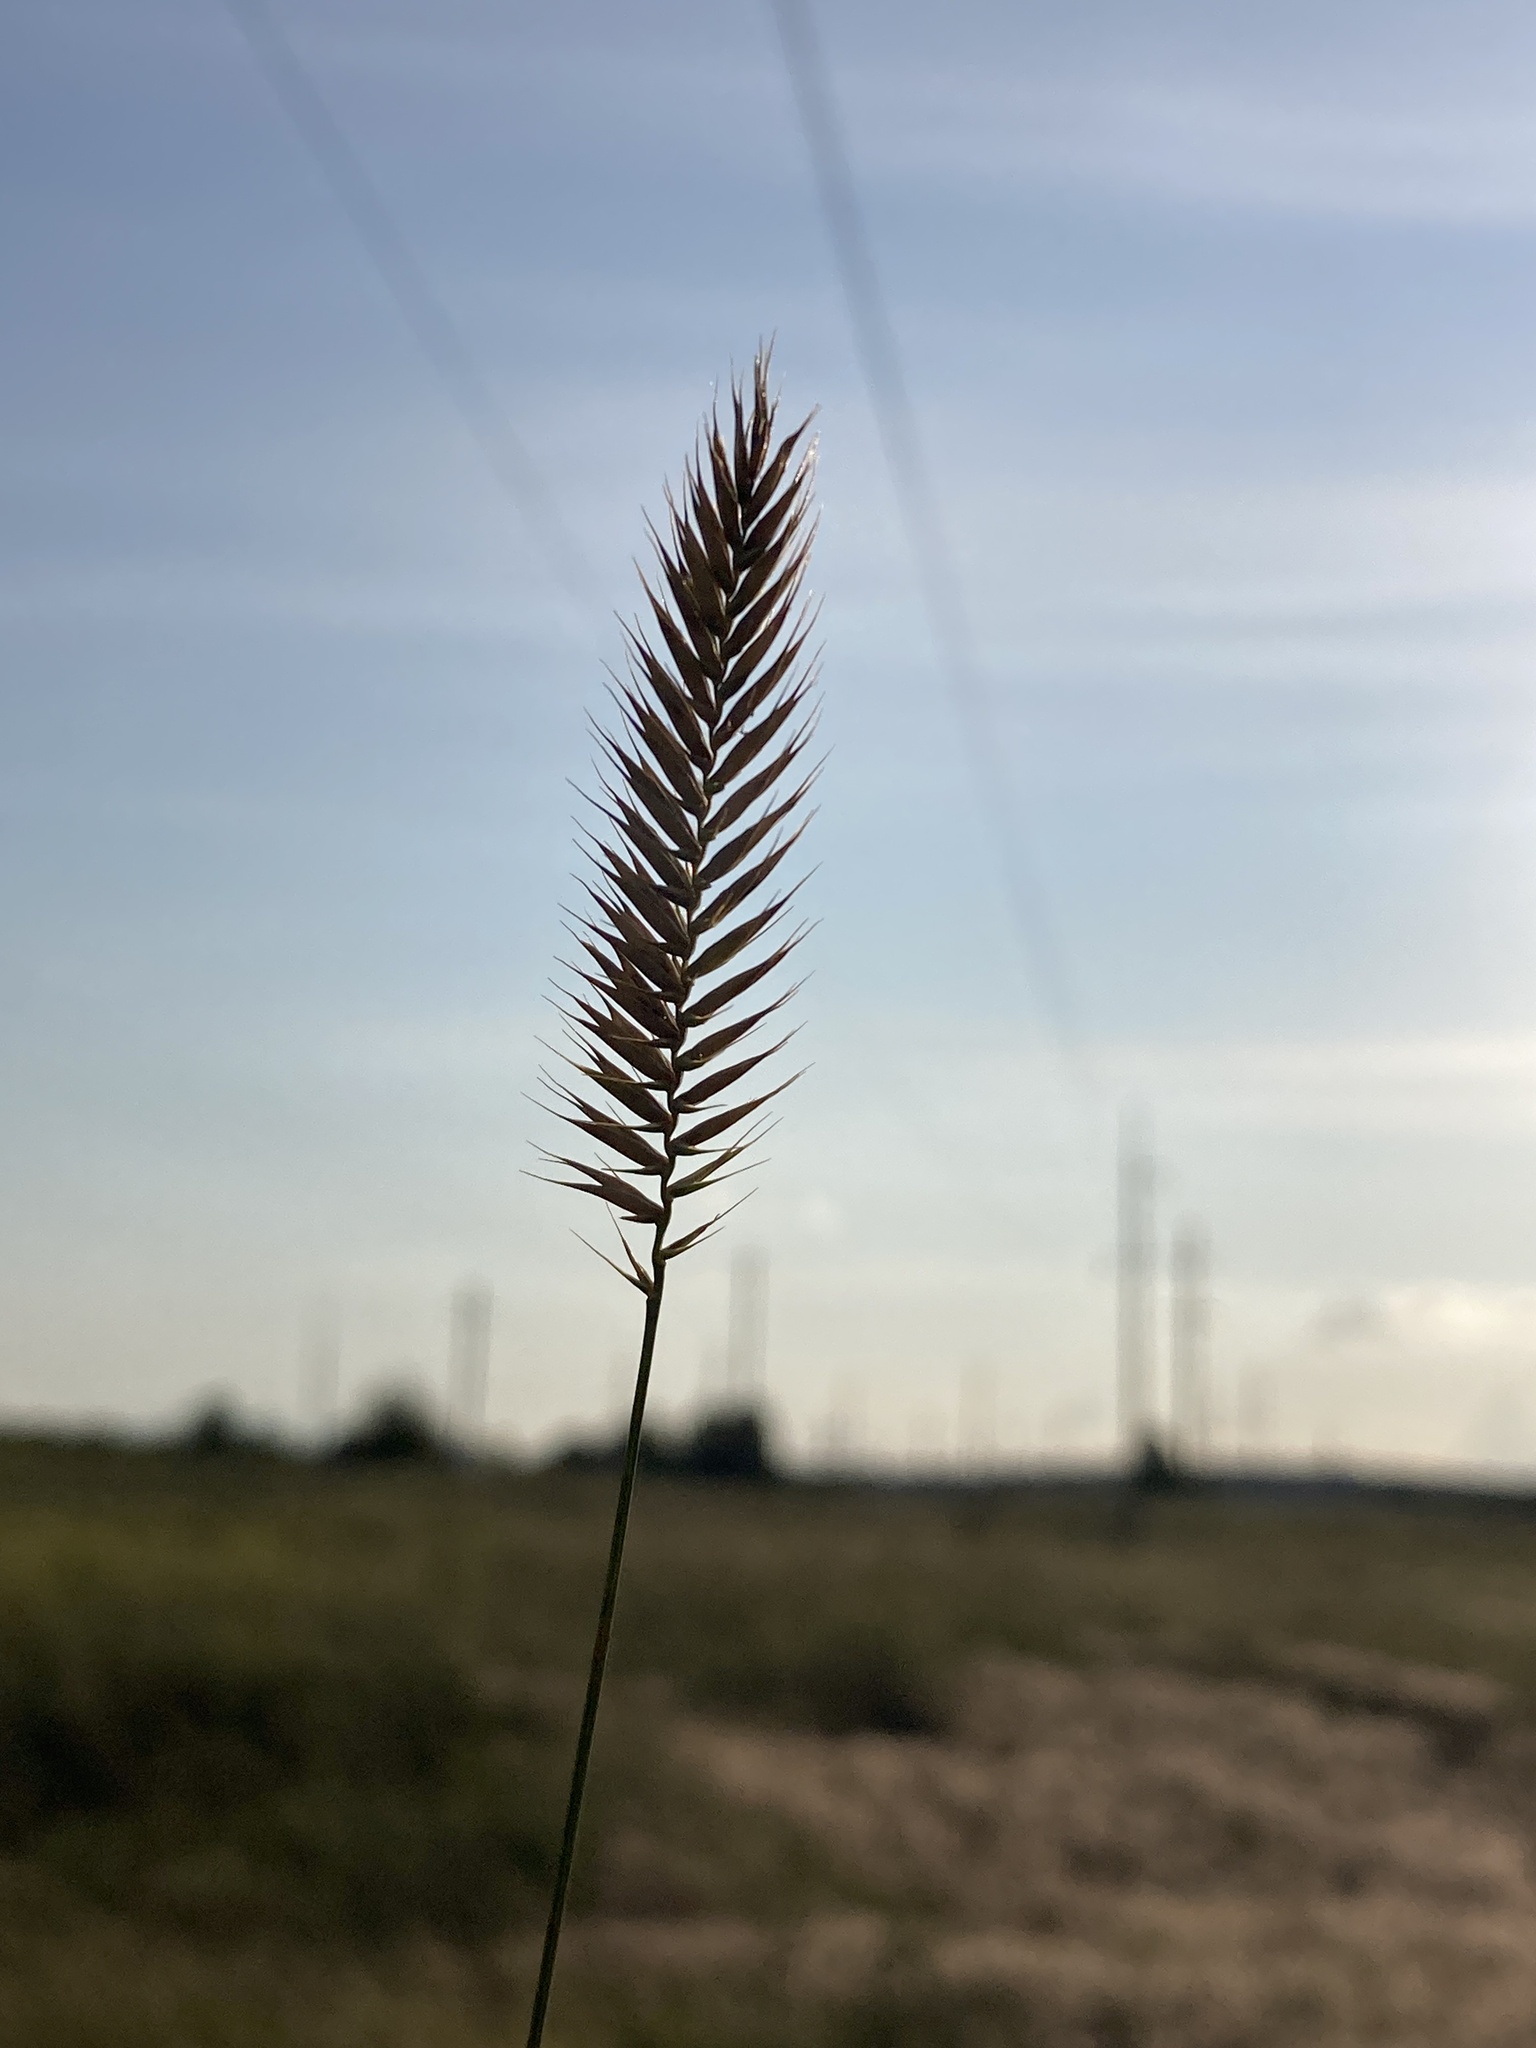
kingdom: Plantae
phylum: Tracheophyta
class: Liliopsida
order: Poales
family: Poaceae
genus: Agropyron
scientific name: Agropyron cristatum
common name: Crested wheatgrass
